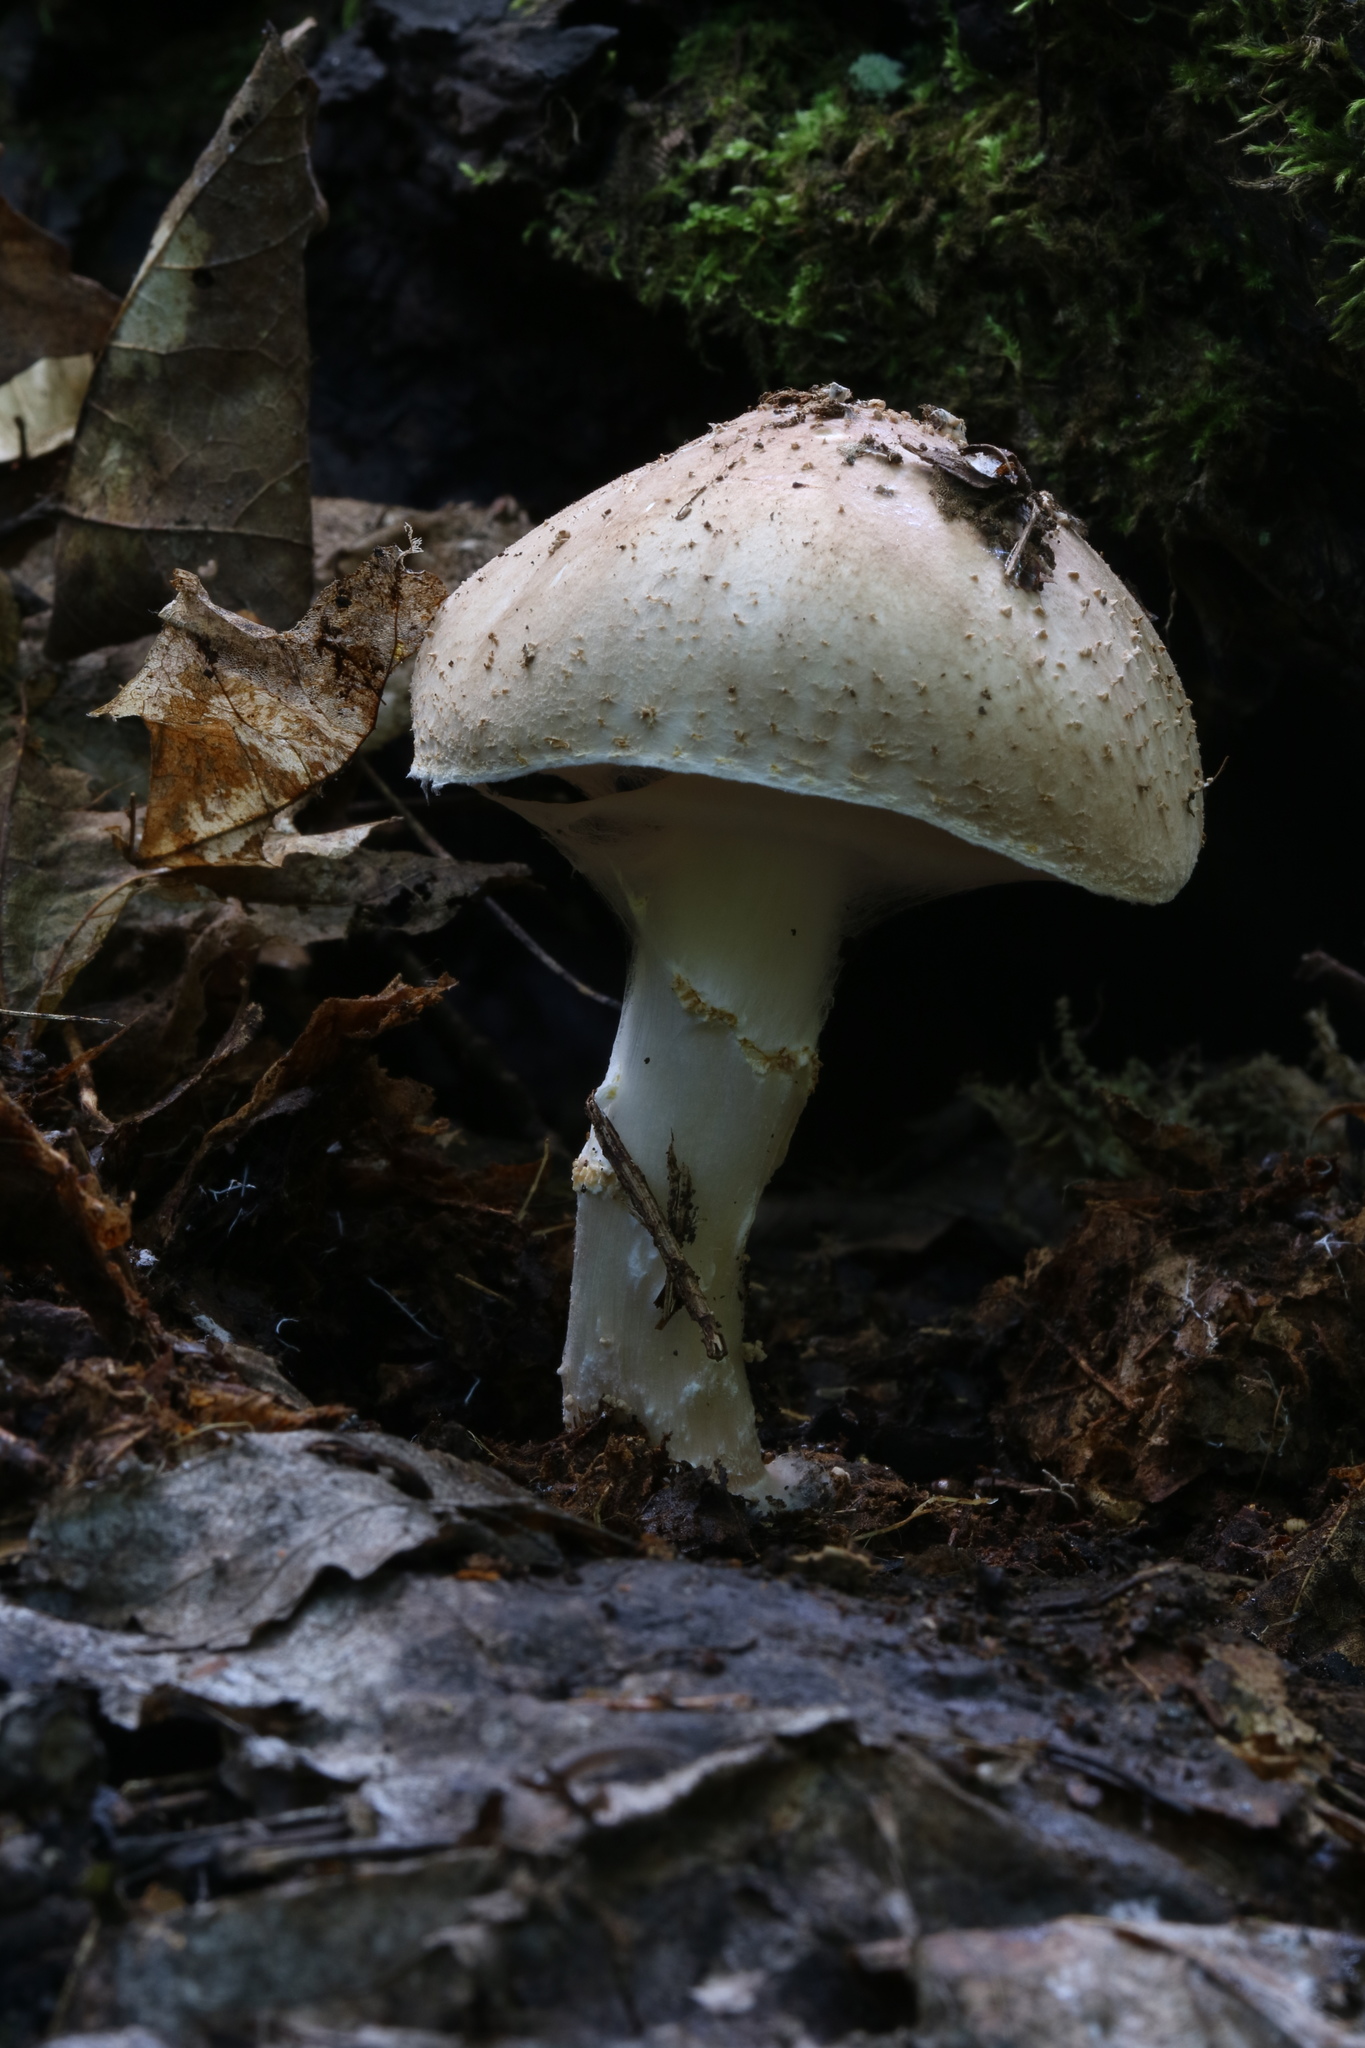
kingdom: Fungi
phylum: Basidiomycota
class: Agaricomycetes
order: Agaricales
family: Agaricaceae
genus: Echinoderma
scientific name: Echinoderma asperum
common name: Freckled dapperling
